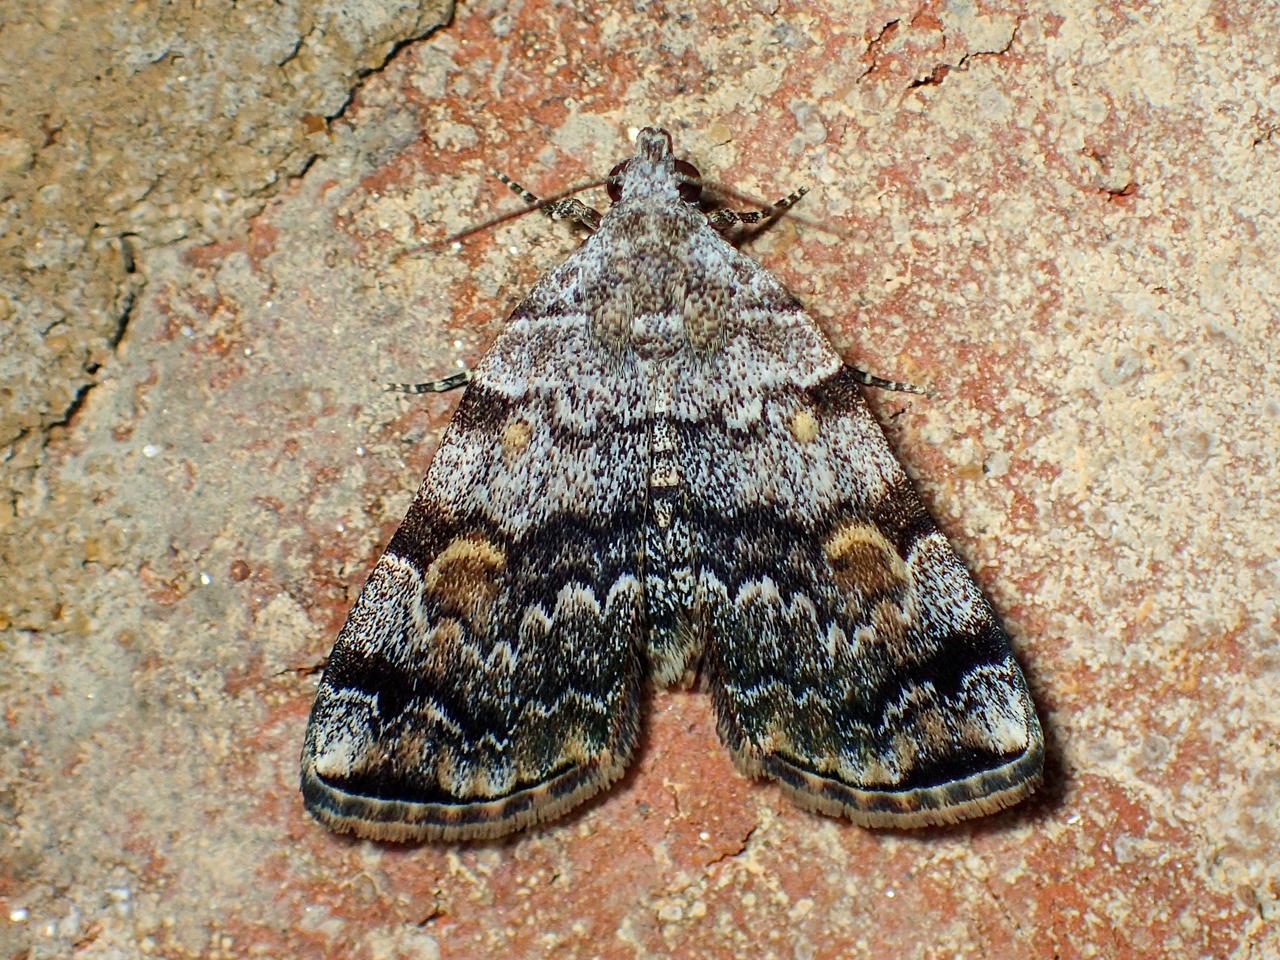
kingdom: Animalia
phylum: Arthropoda
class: Insecta
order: Lepidoptera
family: Erebidae
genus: Idia
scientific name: Idia americalis
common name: American idia moth
